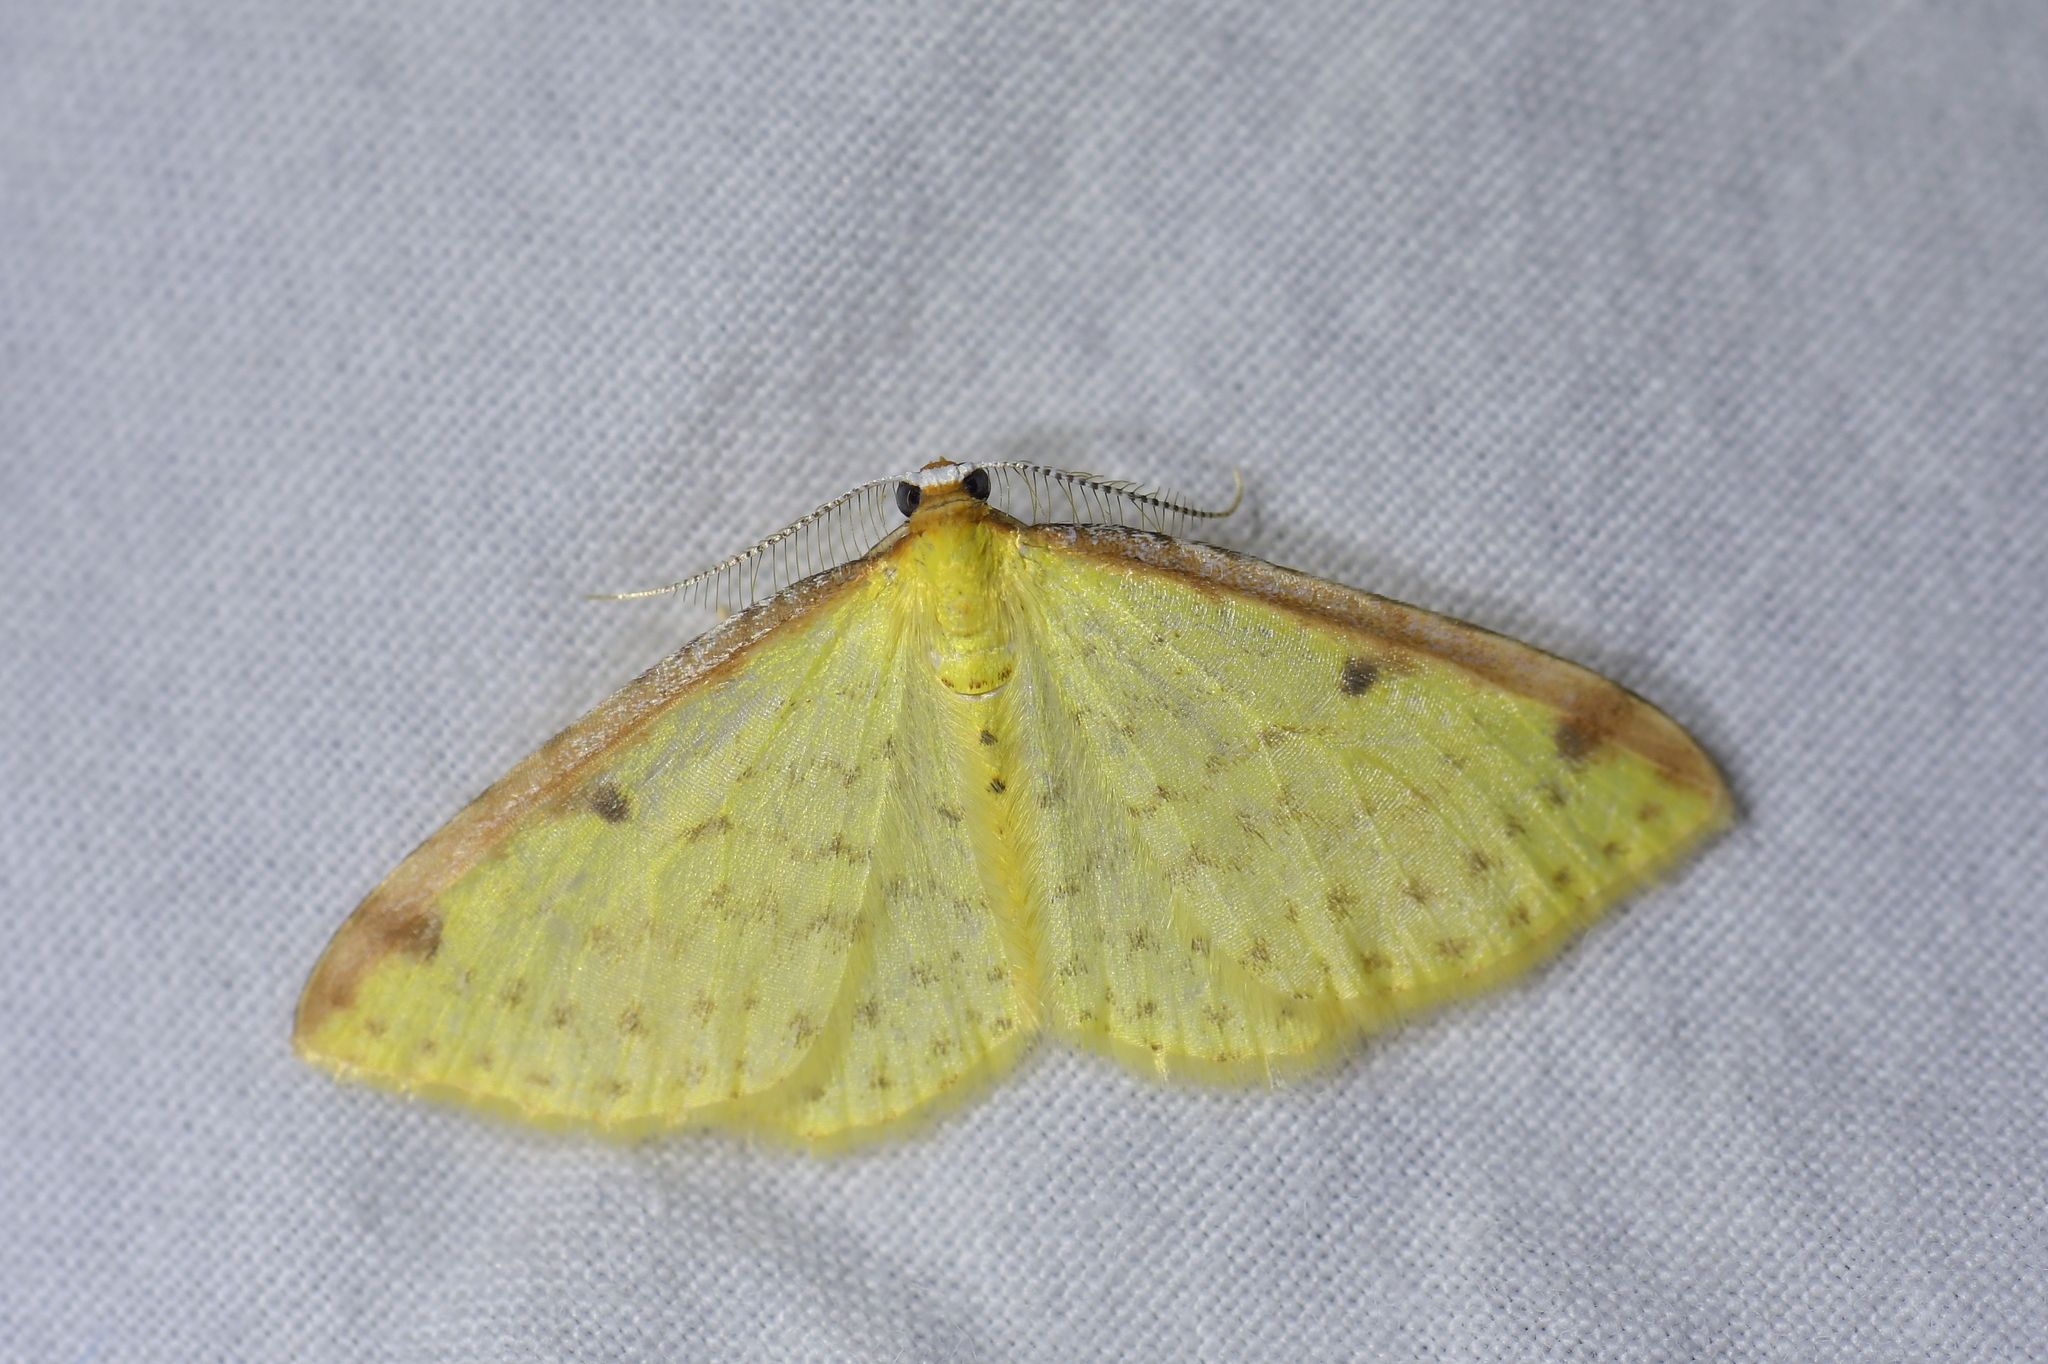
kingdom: Animalia
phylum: Arthropoda
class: Insecta
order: Lepidoptera
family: Geometridae
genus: Epiphryne
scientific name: Epiphryne undosata
